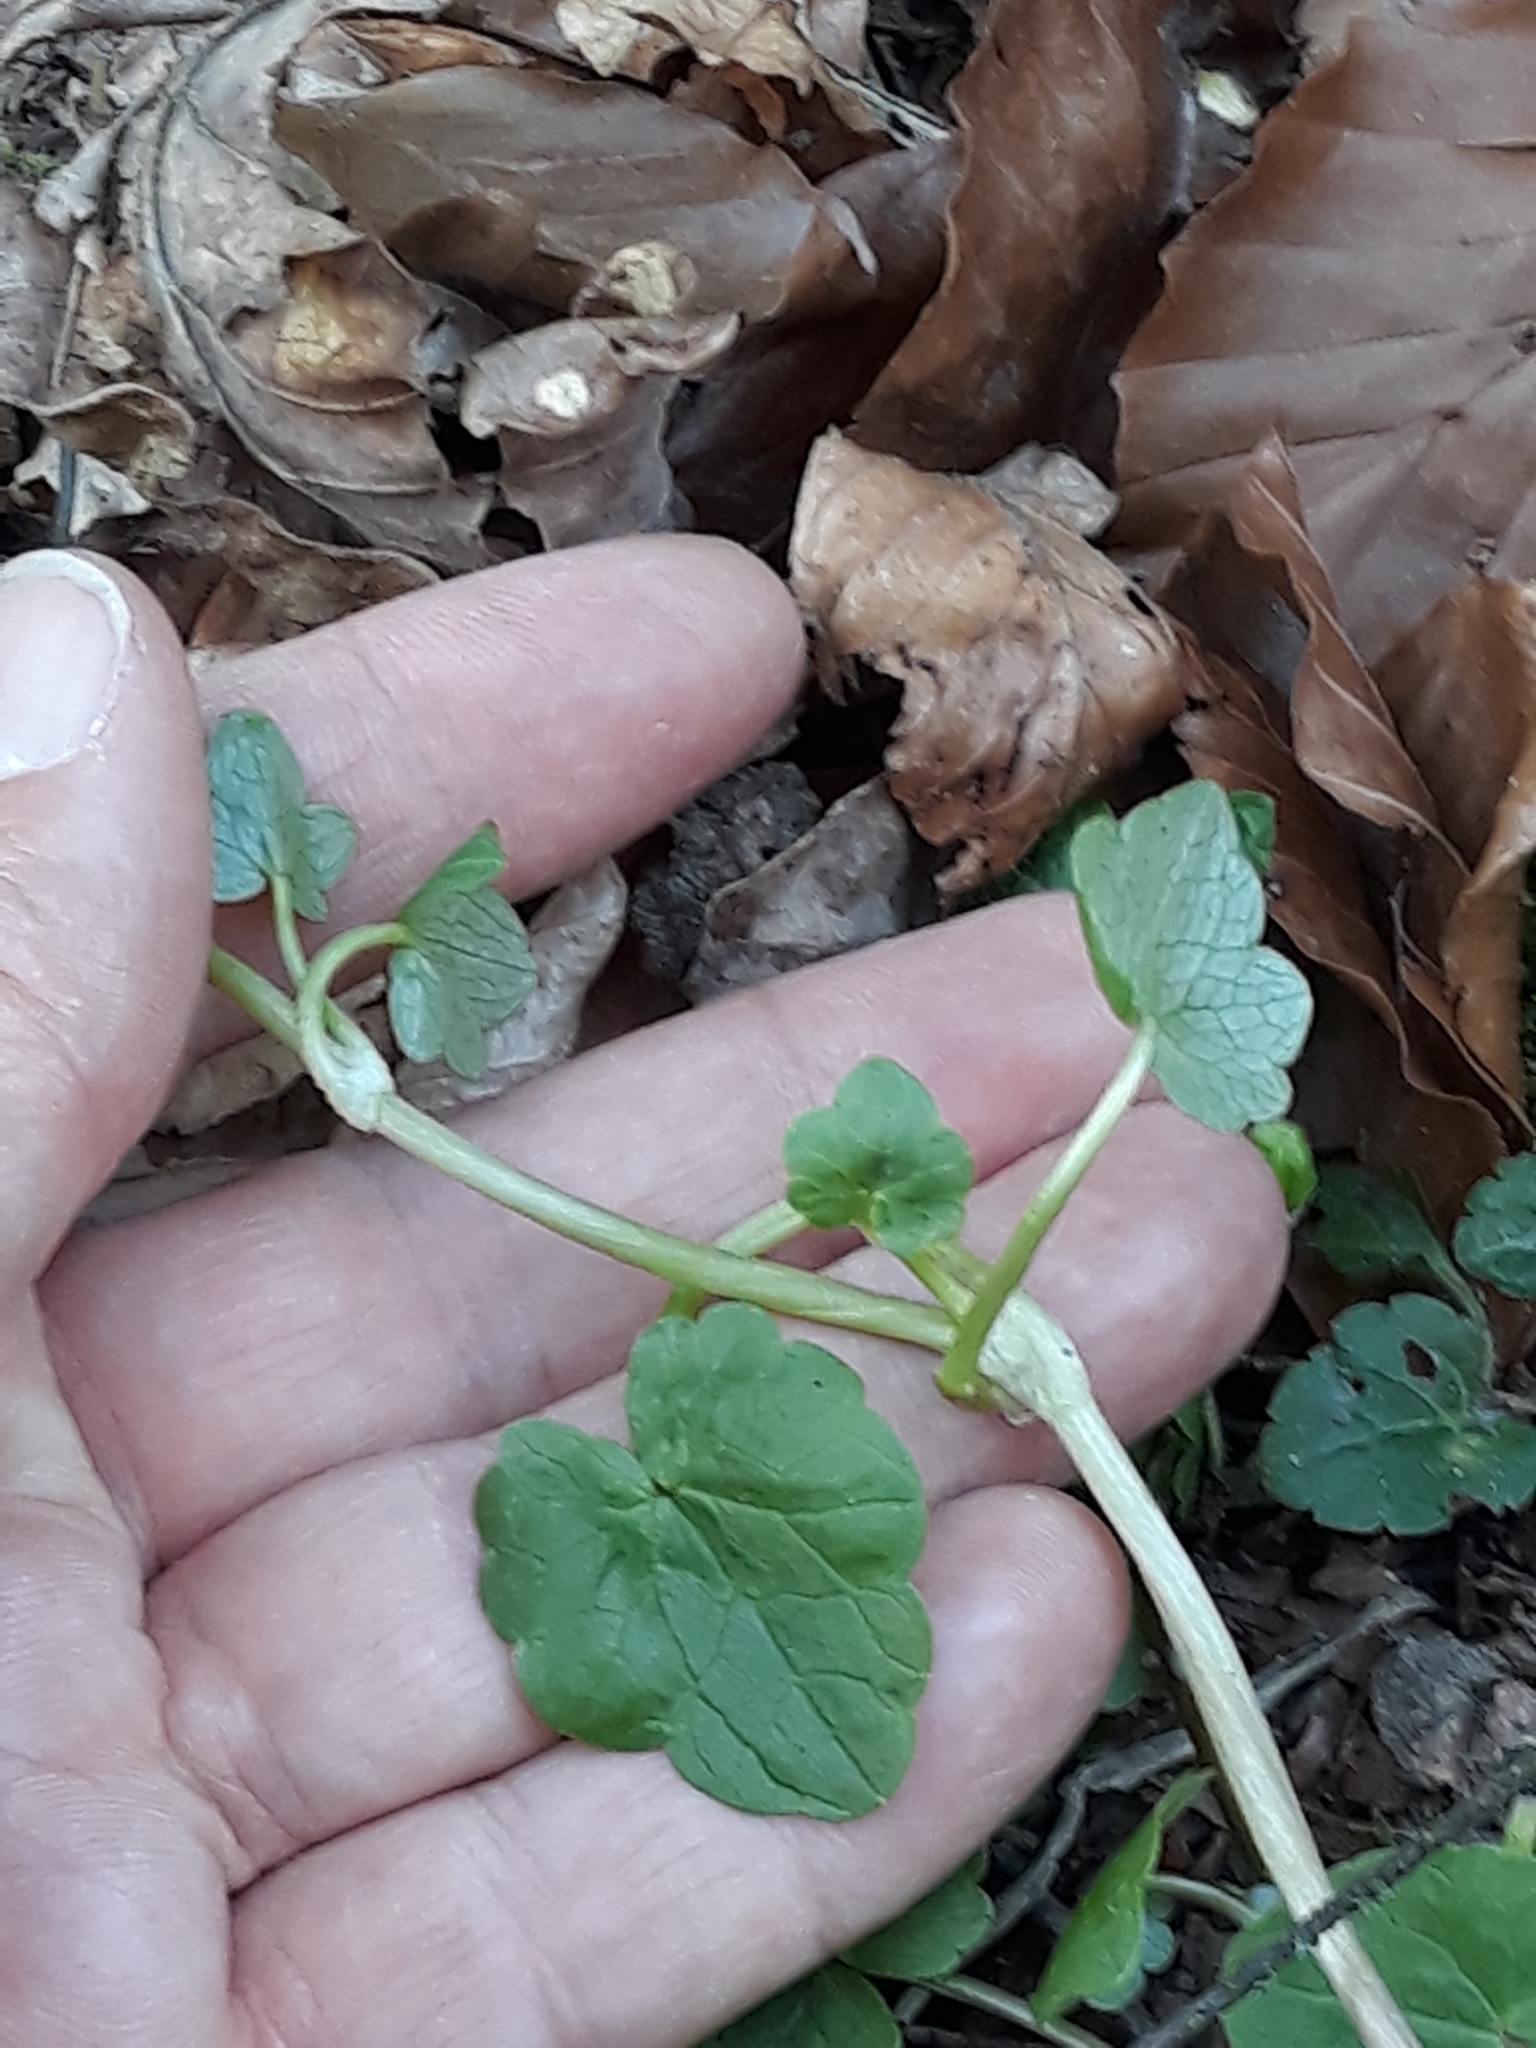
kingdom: Plantae
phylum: Tracheophyta
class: Magnoliopsida
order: Ranunculales
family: Ranunculaceae
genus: Ficaria
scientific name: Ficaria verna
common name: Lesser celandine
